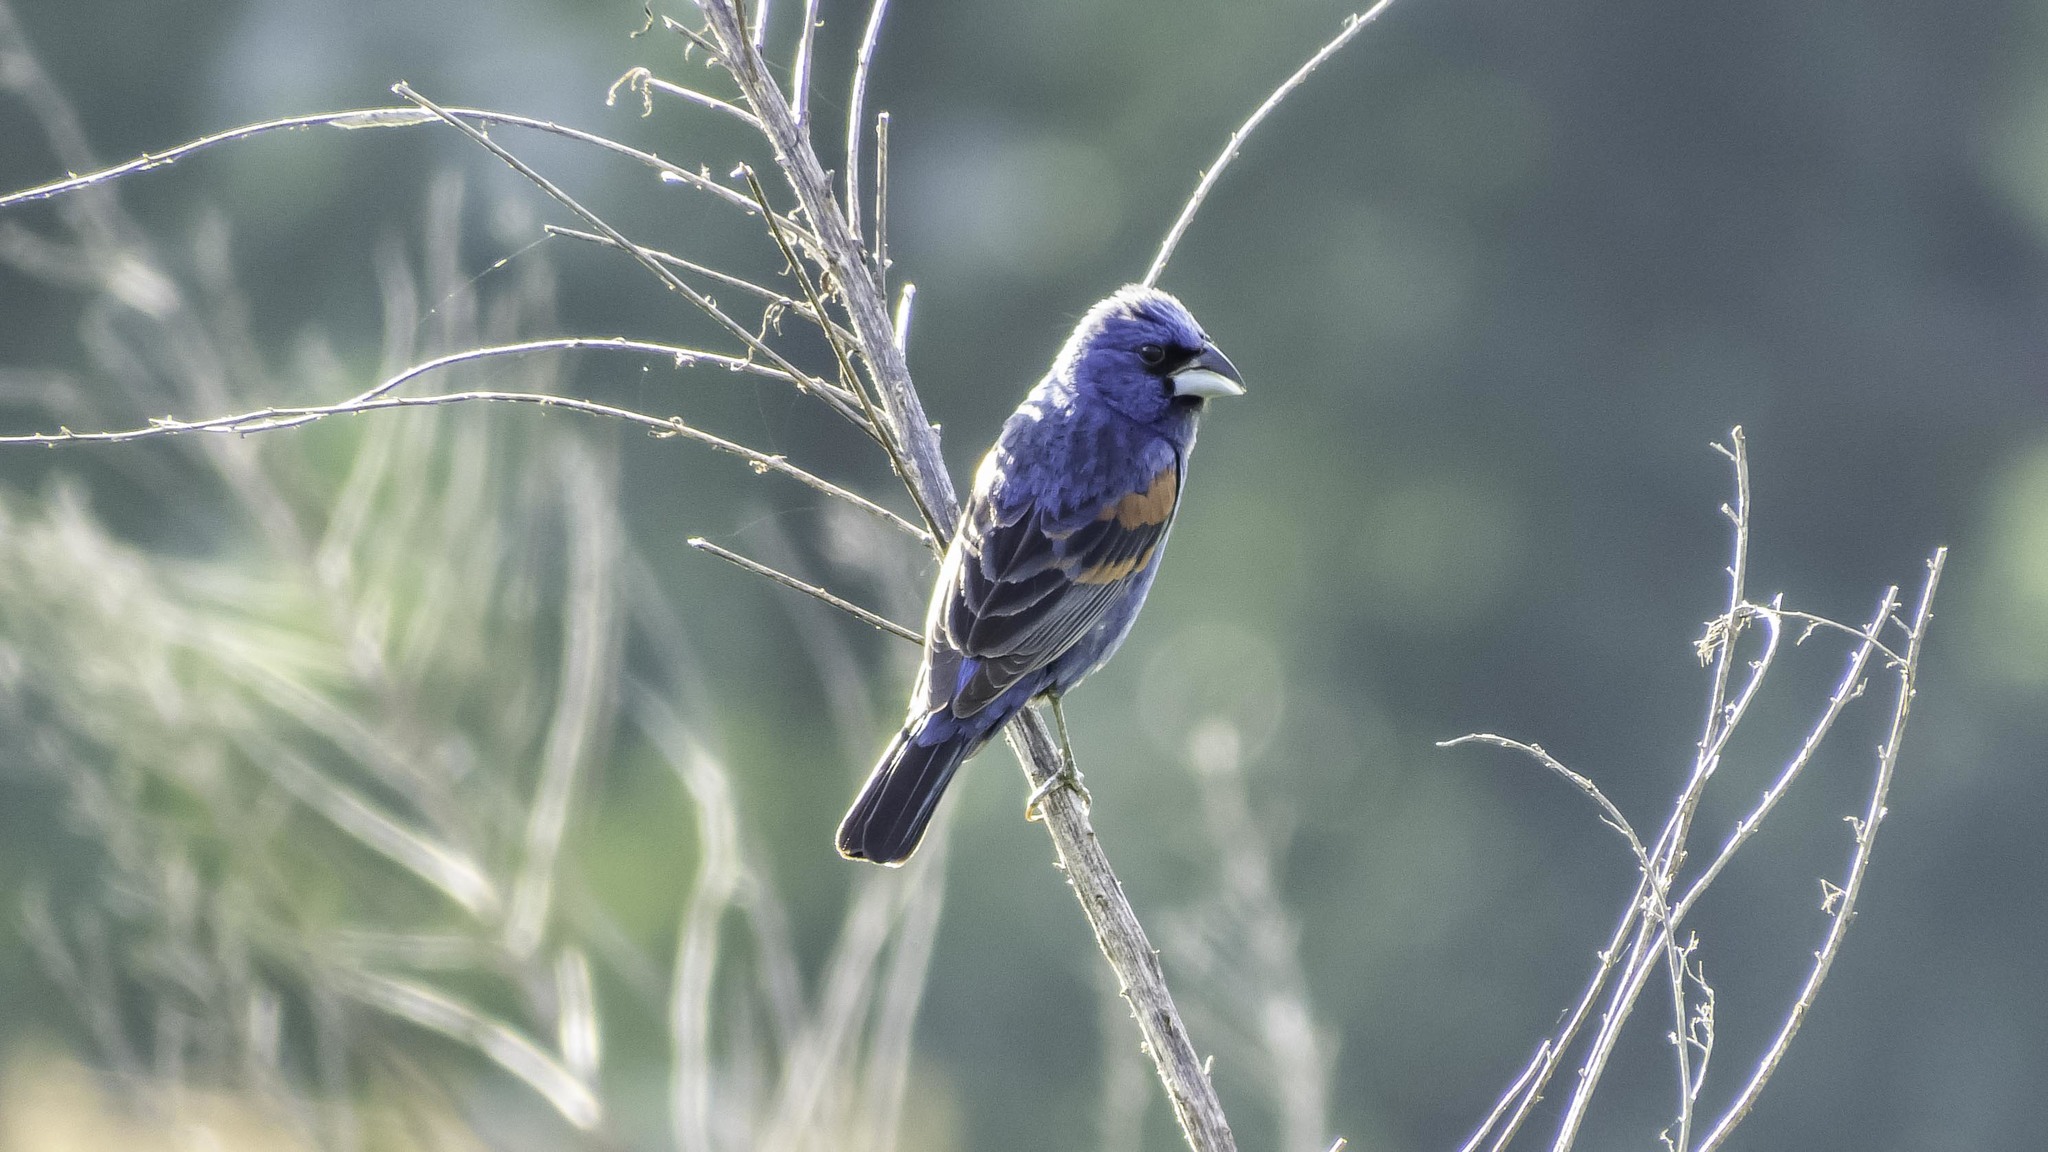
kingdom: Animalia
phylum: Chordata
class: Aves
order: Passeriformes
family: Cardinalidae
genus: Passerina
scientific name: Passerina caerulea
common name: Blue grosbeak
